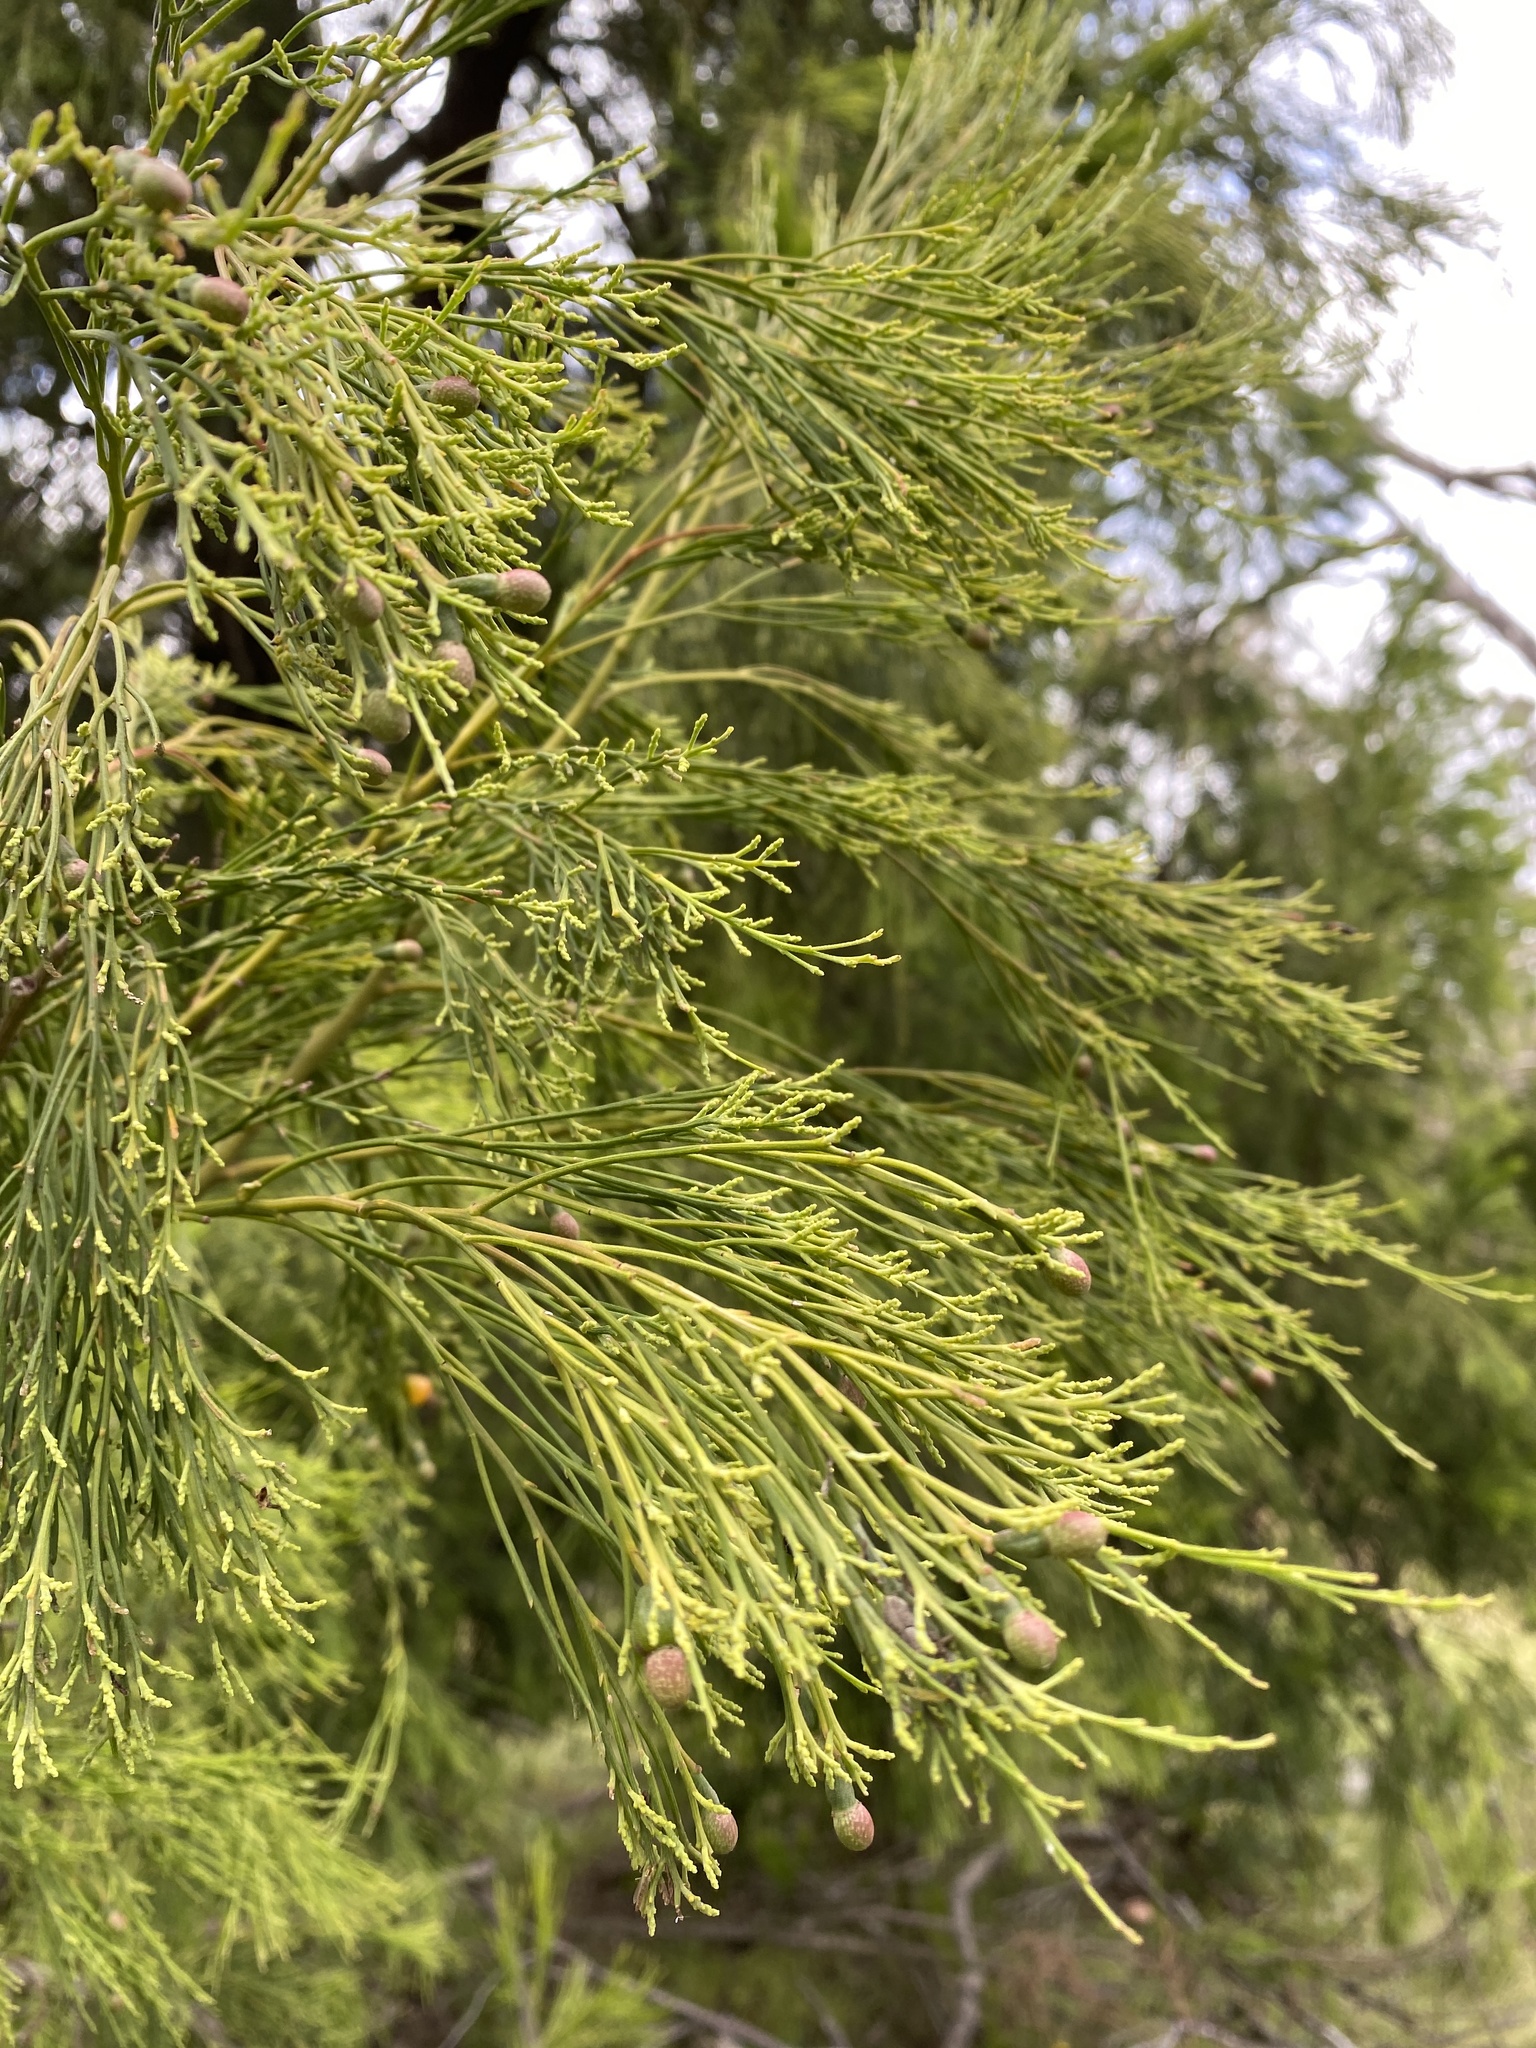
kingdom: Plantae
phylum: Tracheophyta
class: Magnoliopsida
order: Santalales
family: Santalaceae
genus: Exocarpos
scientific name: Exocarpos cupressiformis
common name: Cherry ballart
